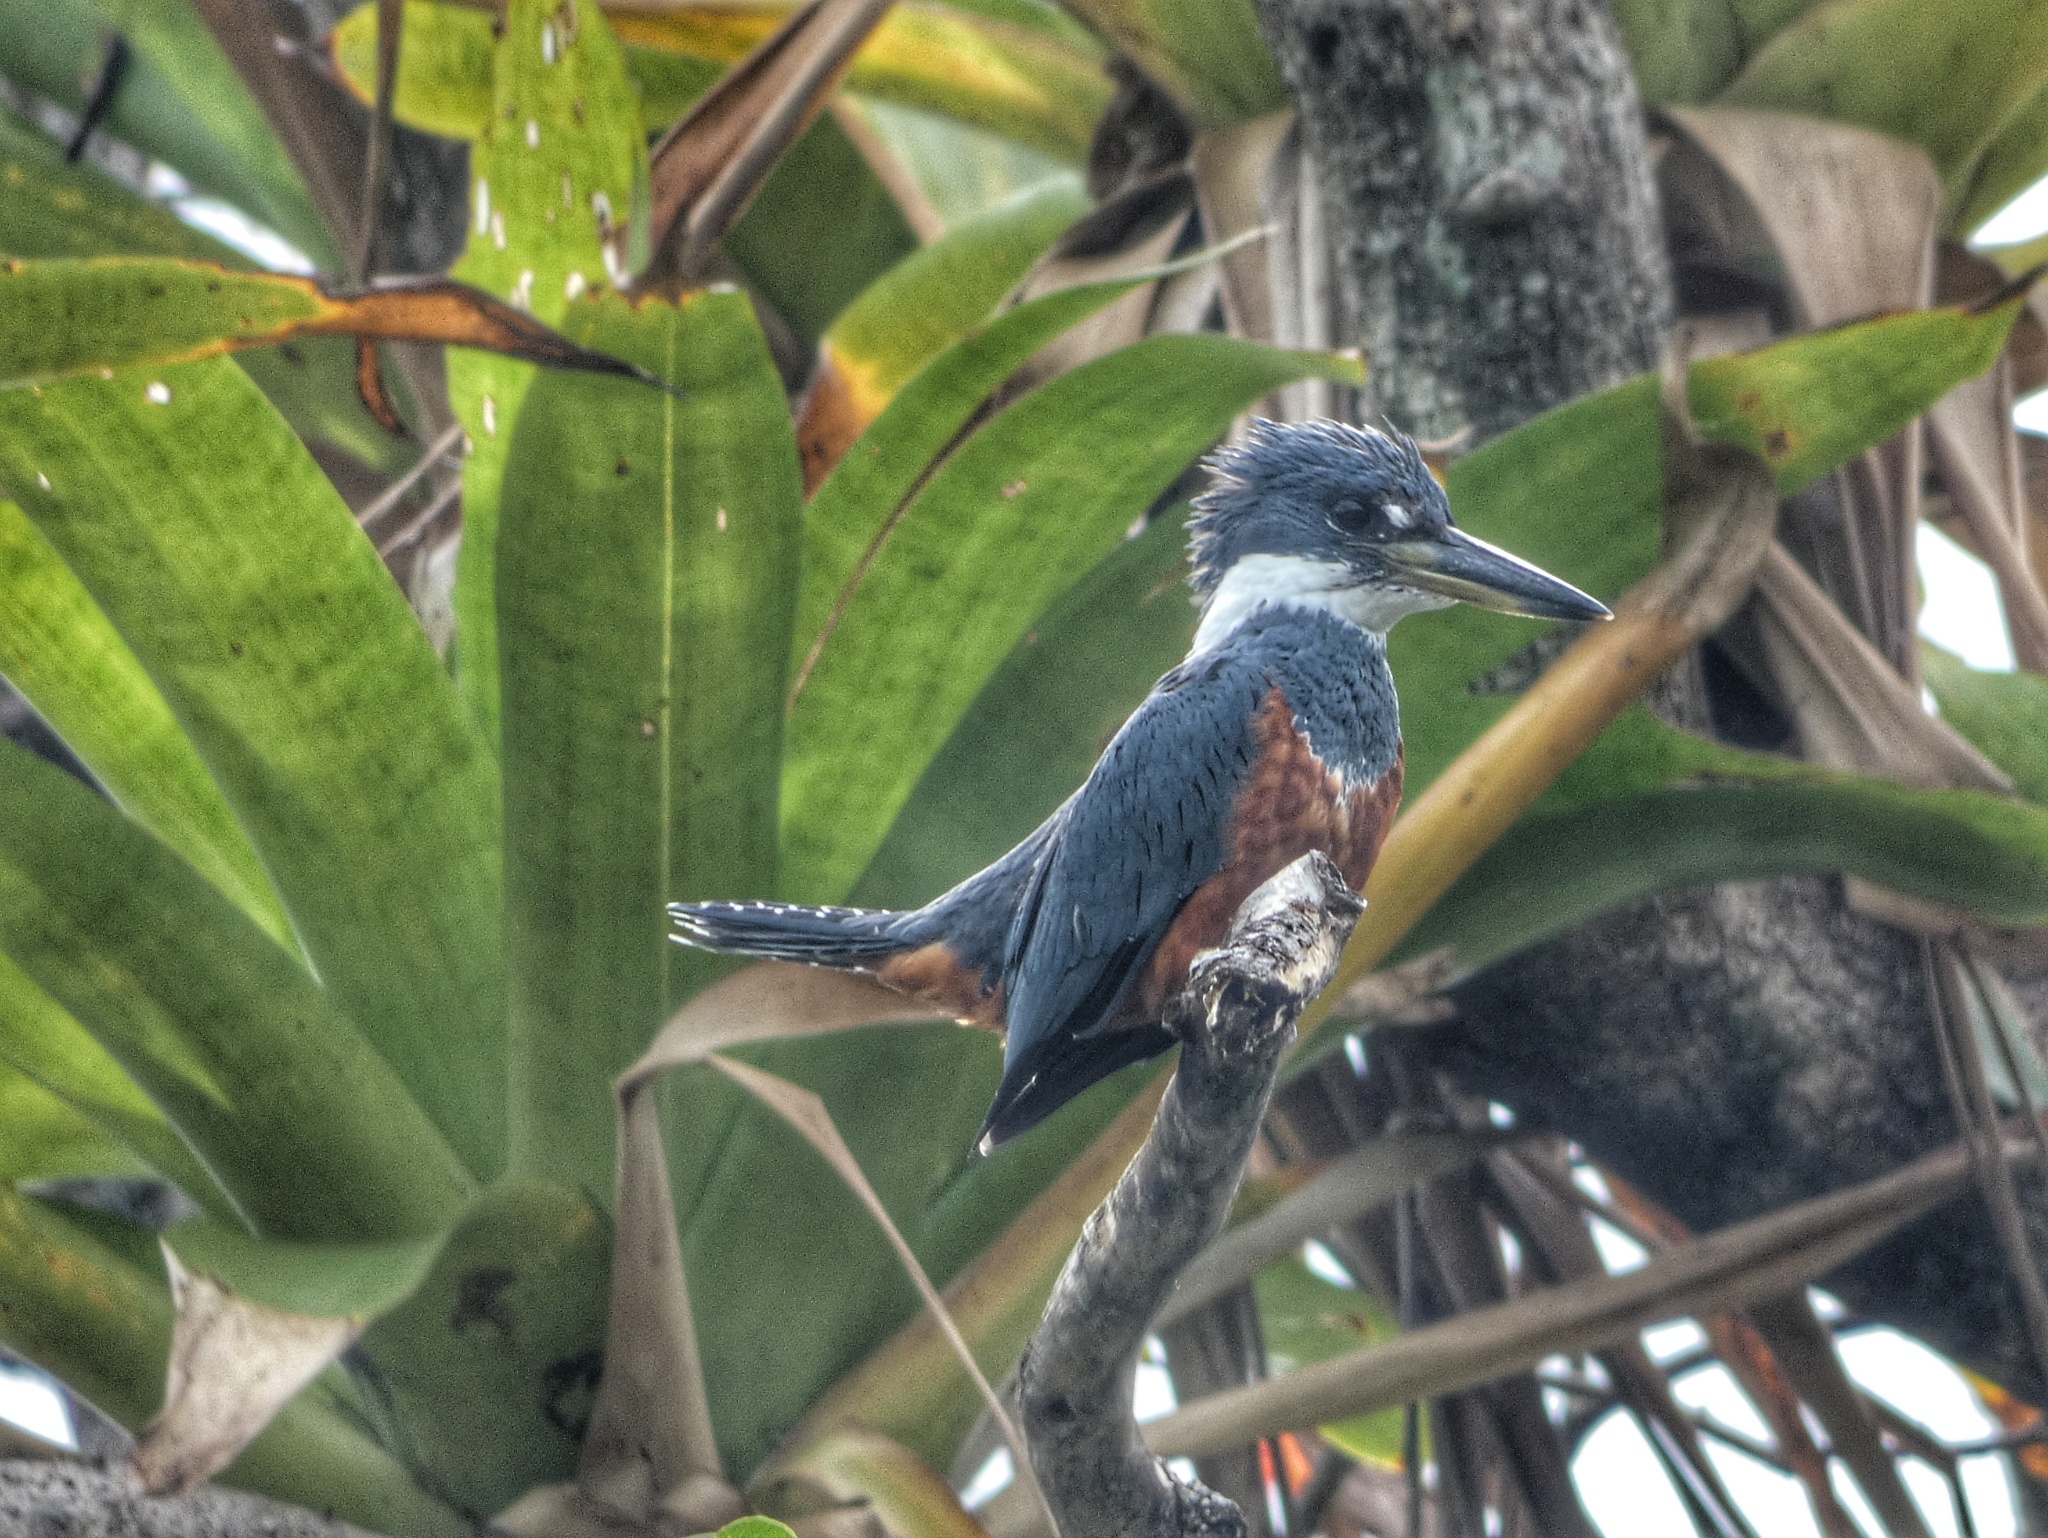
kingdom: Animalia
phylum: Chordata
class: Aves
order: Coraciiformes
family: Alcedinidae
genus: Megaceryle
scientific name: Megaceryle torquata
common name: Ringed kingfisher
